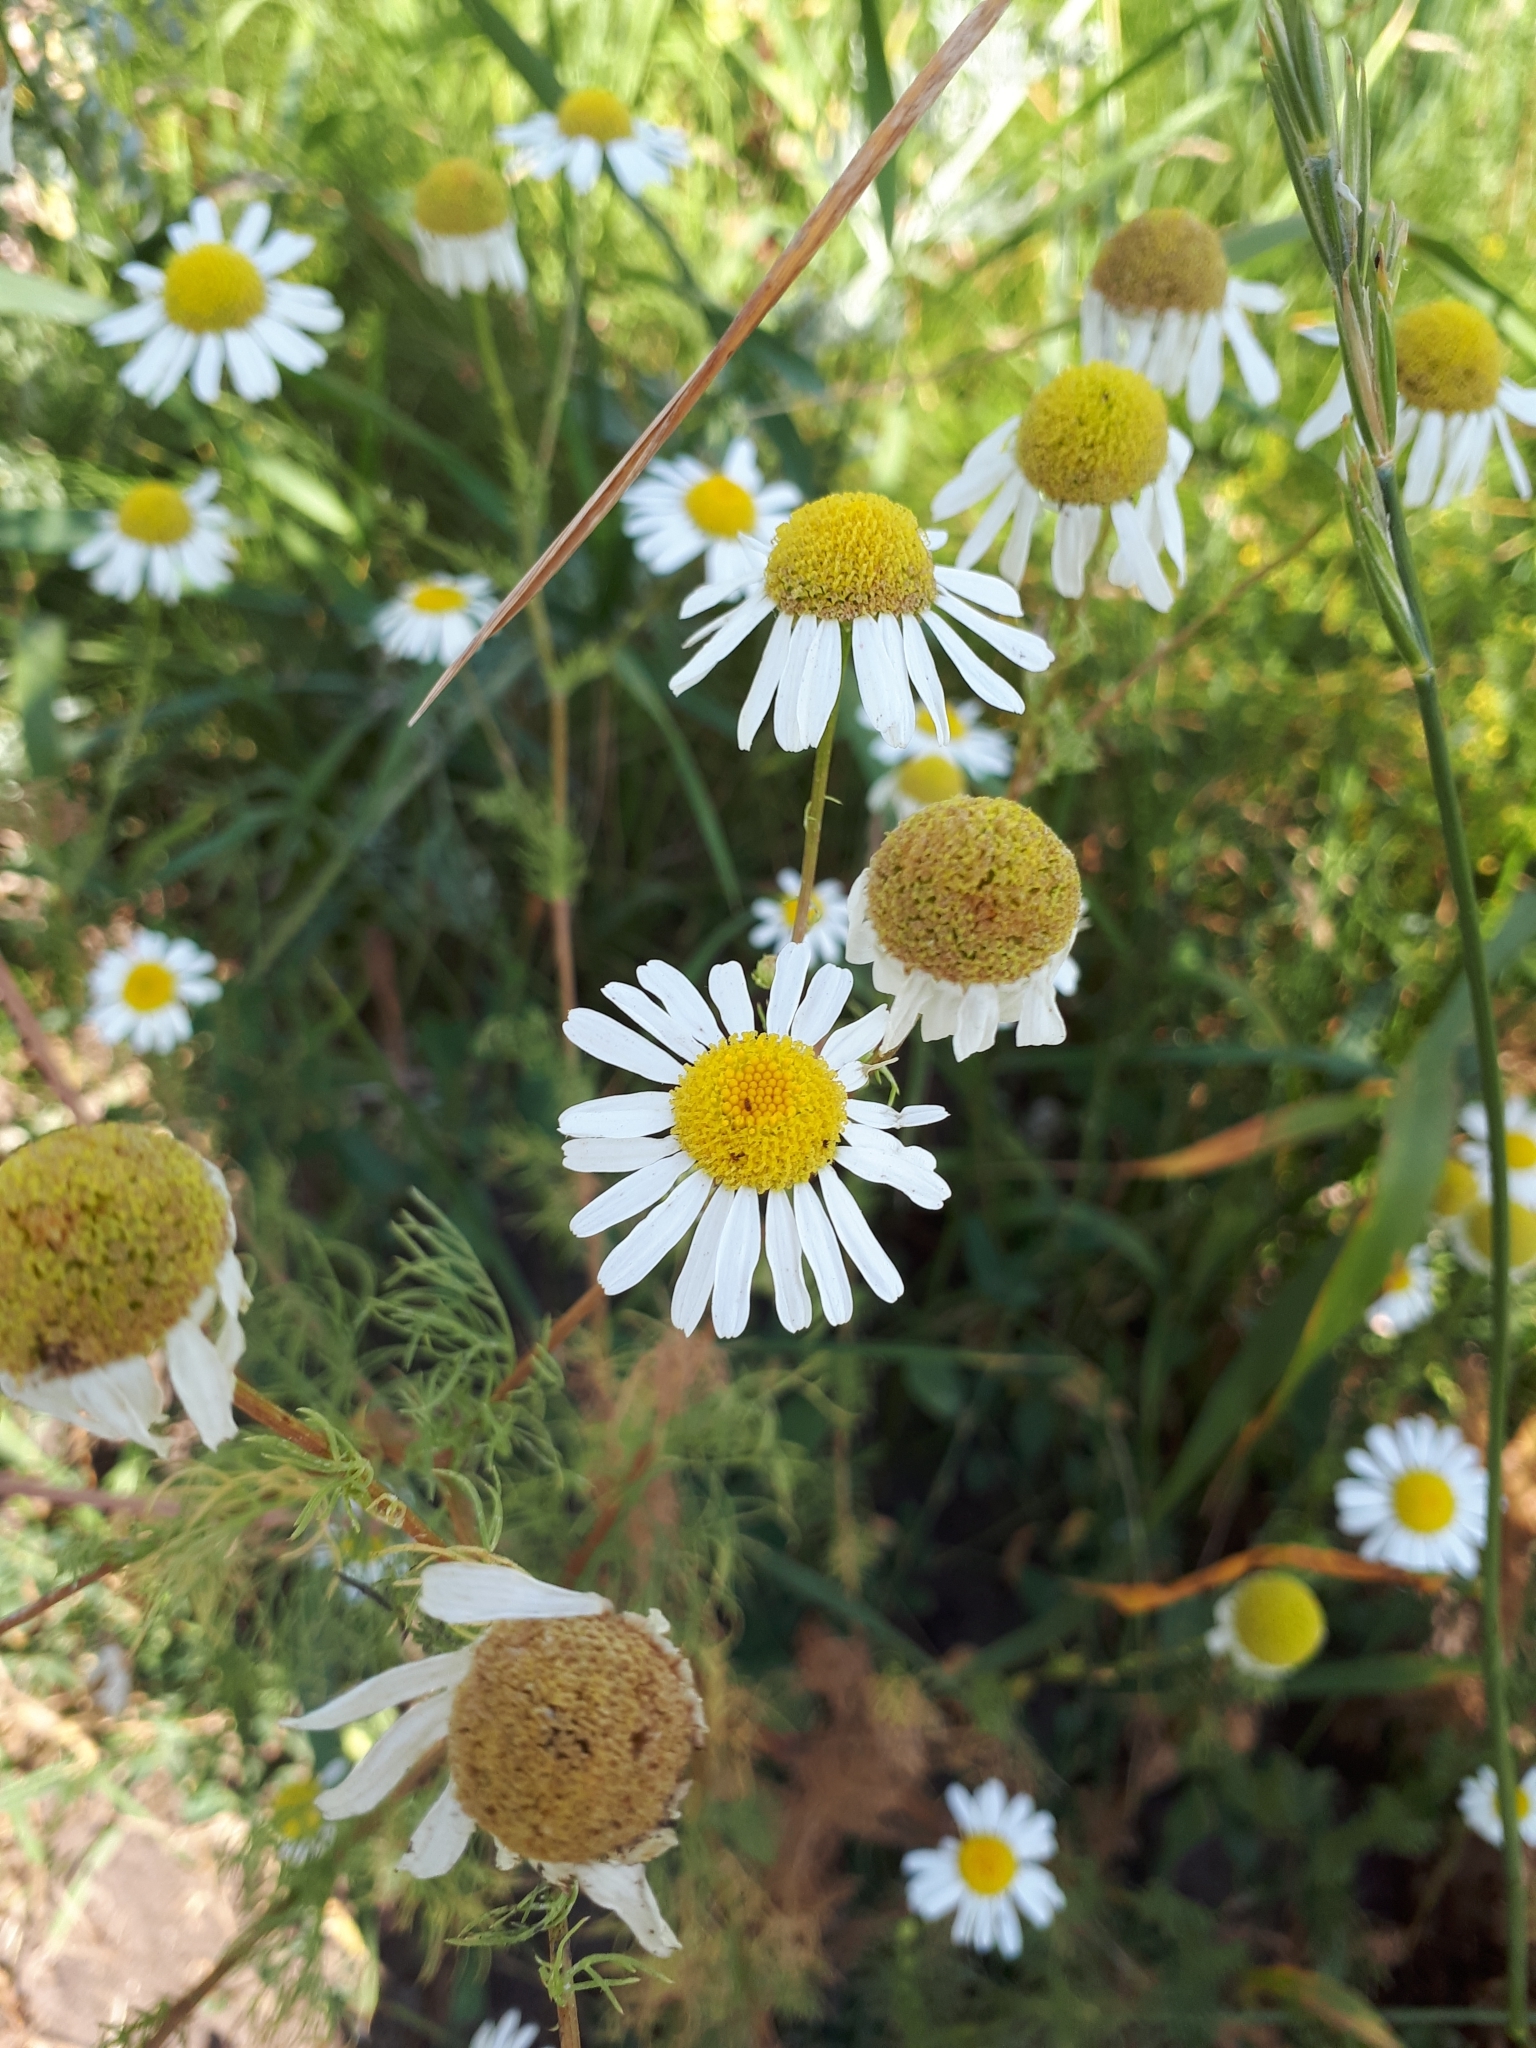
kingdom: Plantae
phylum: Tracheophyta
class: Magnoliopsida
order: Asterales
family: Asteraceae
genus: Tripleurospermum
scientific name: Tripleurospermum inodorum
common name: Scentless mayweed
